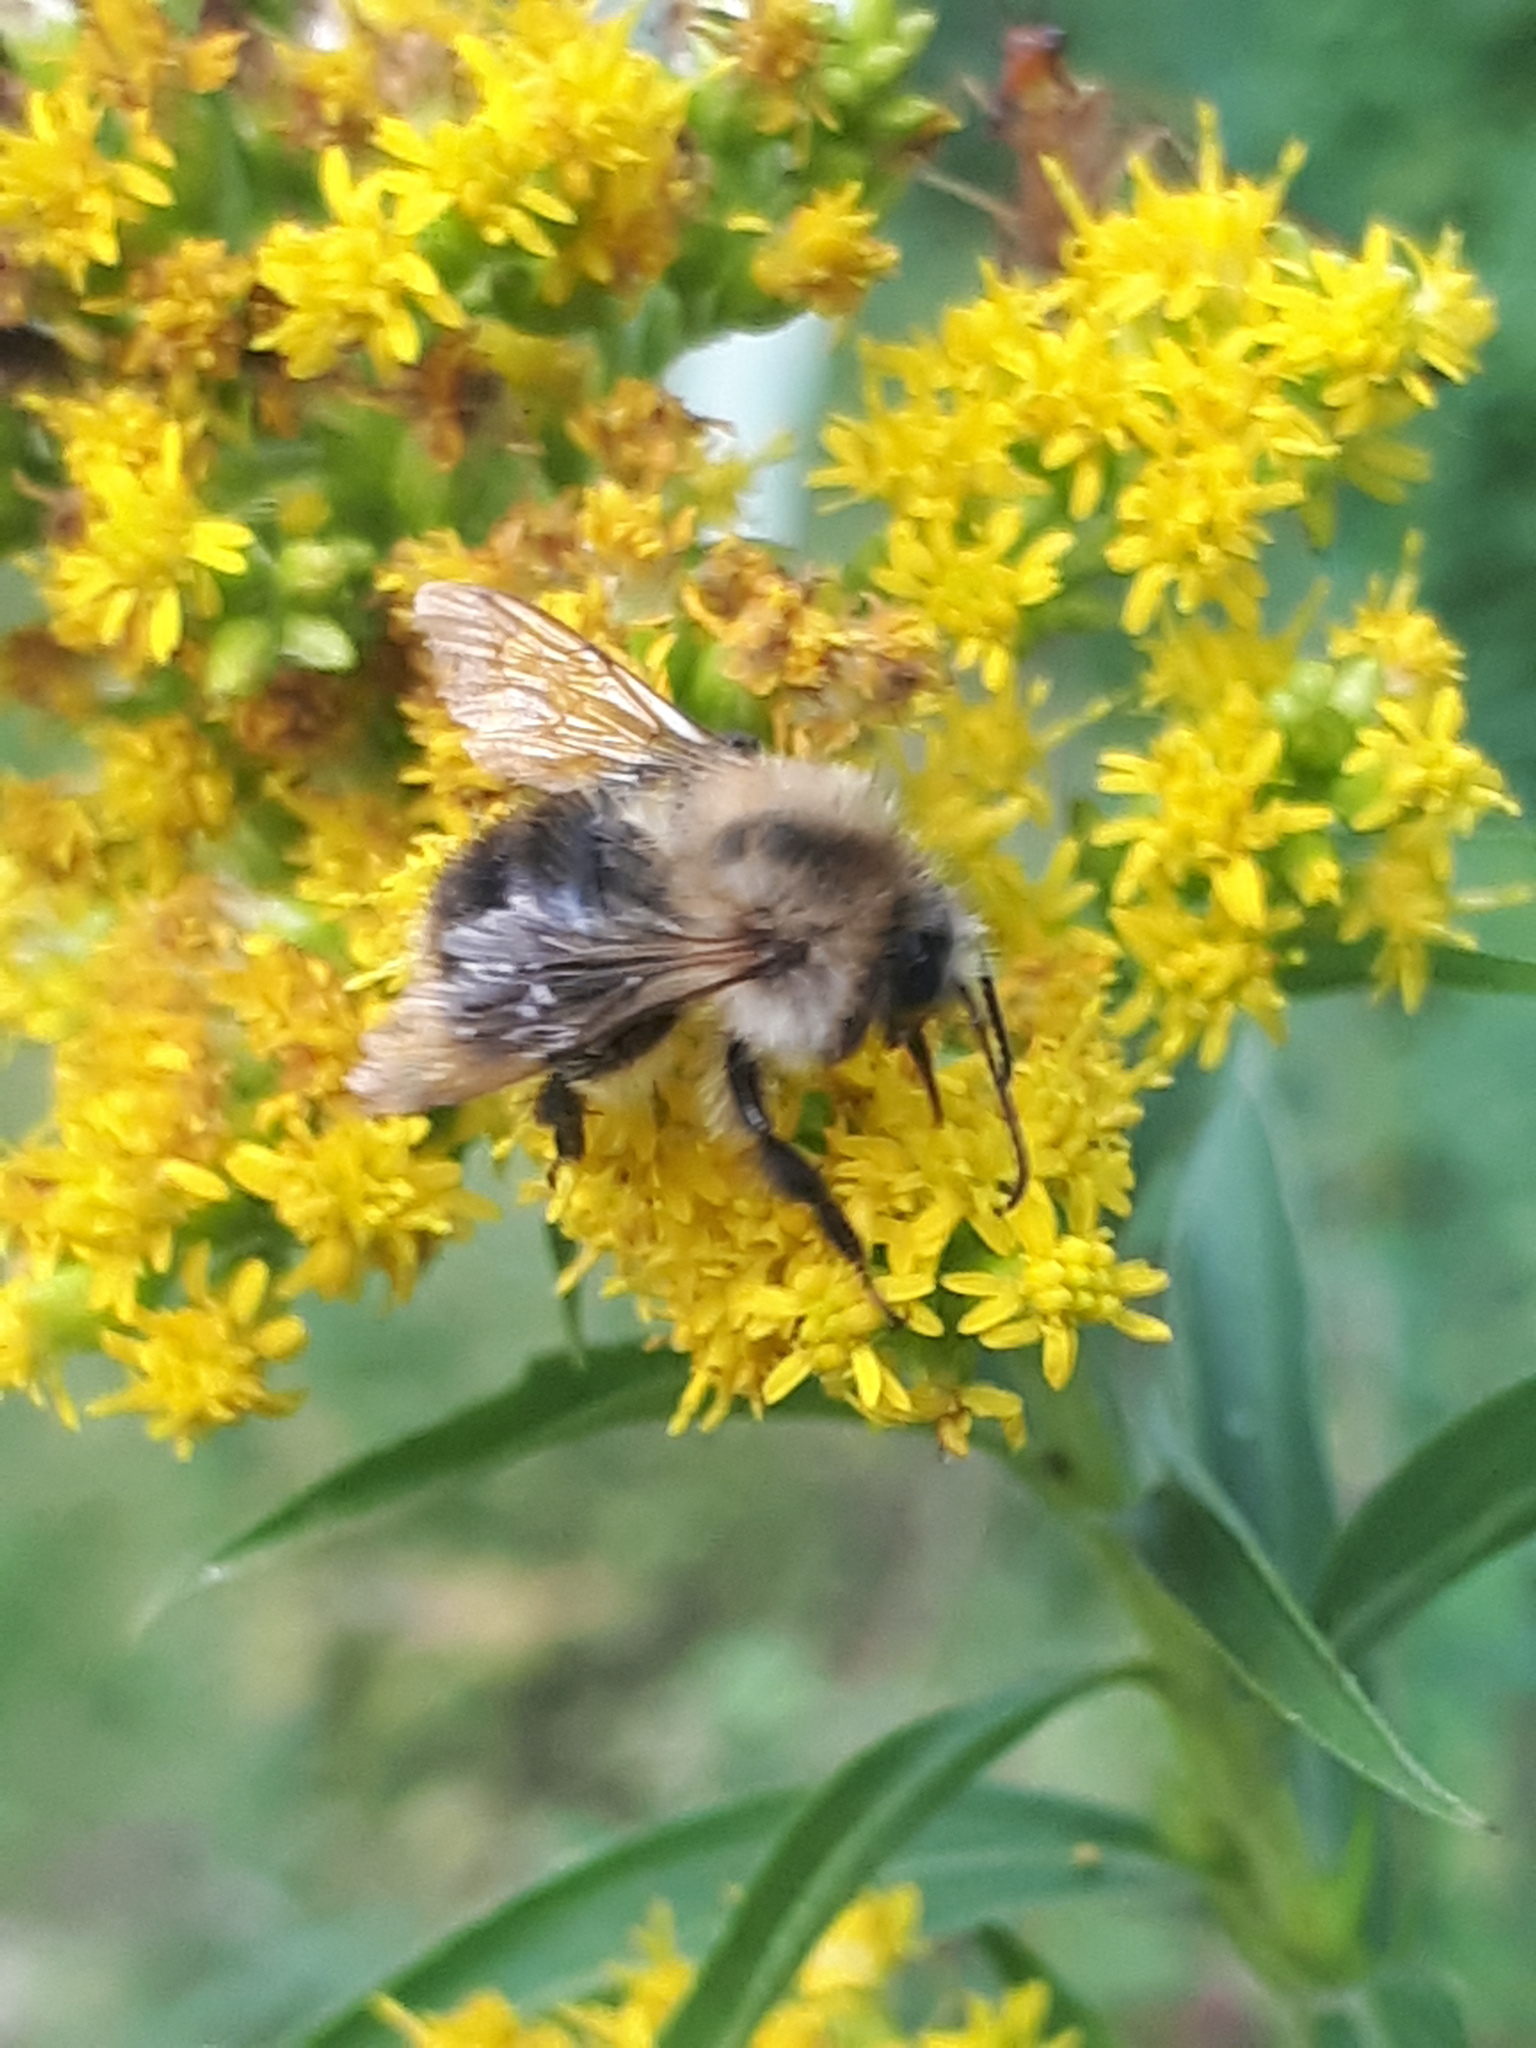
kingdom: Animalia
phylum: Arthropoda
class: Insecta
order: Hymenoptera
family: Apidae
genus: Bombus
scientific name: Bombus pascuorum
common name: Common carder bee
